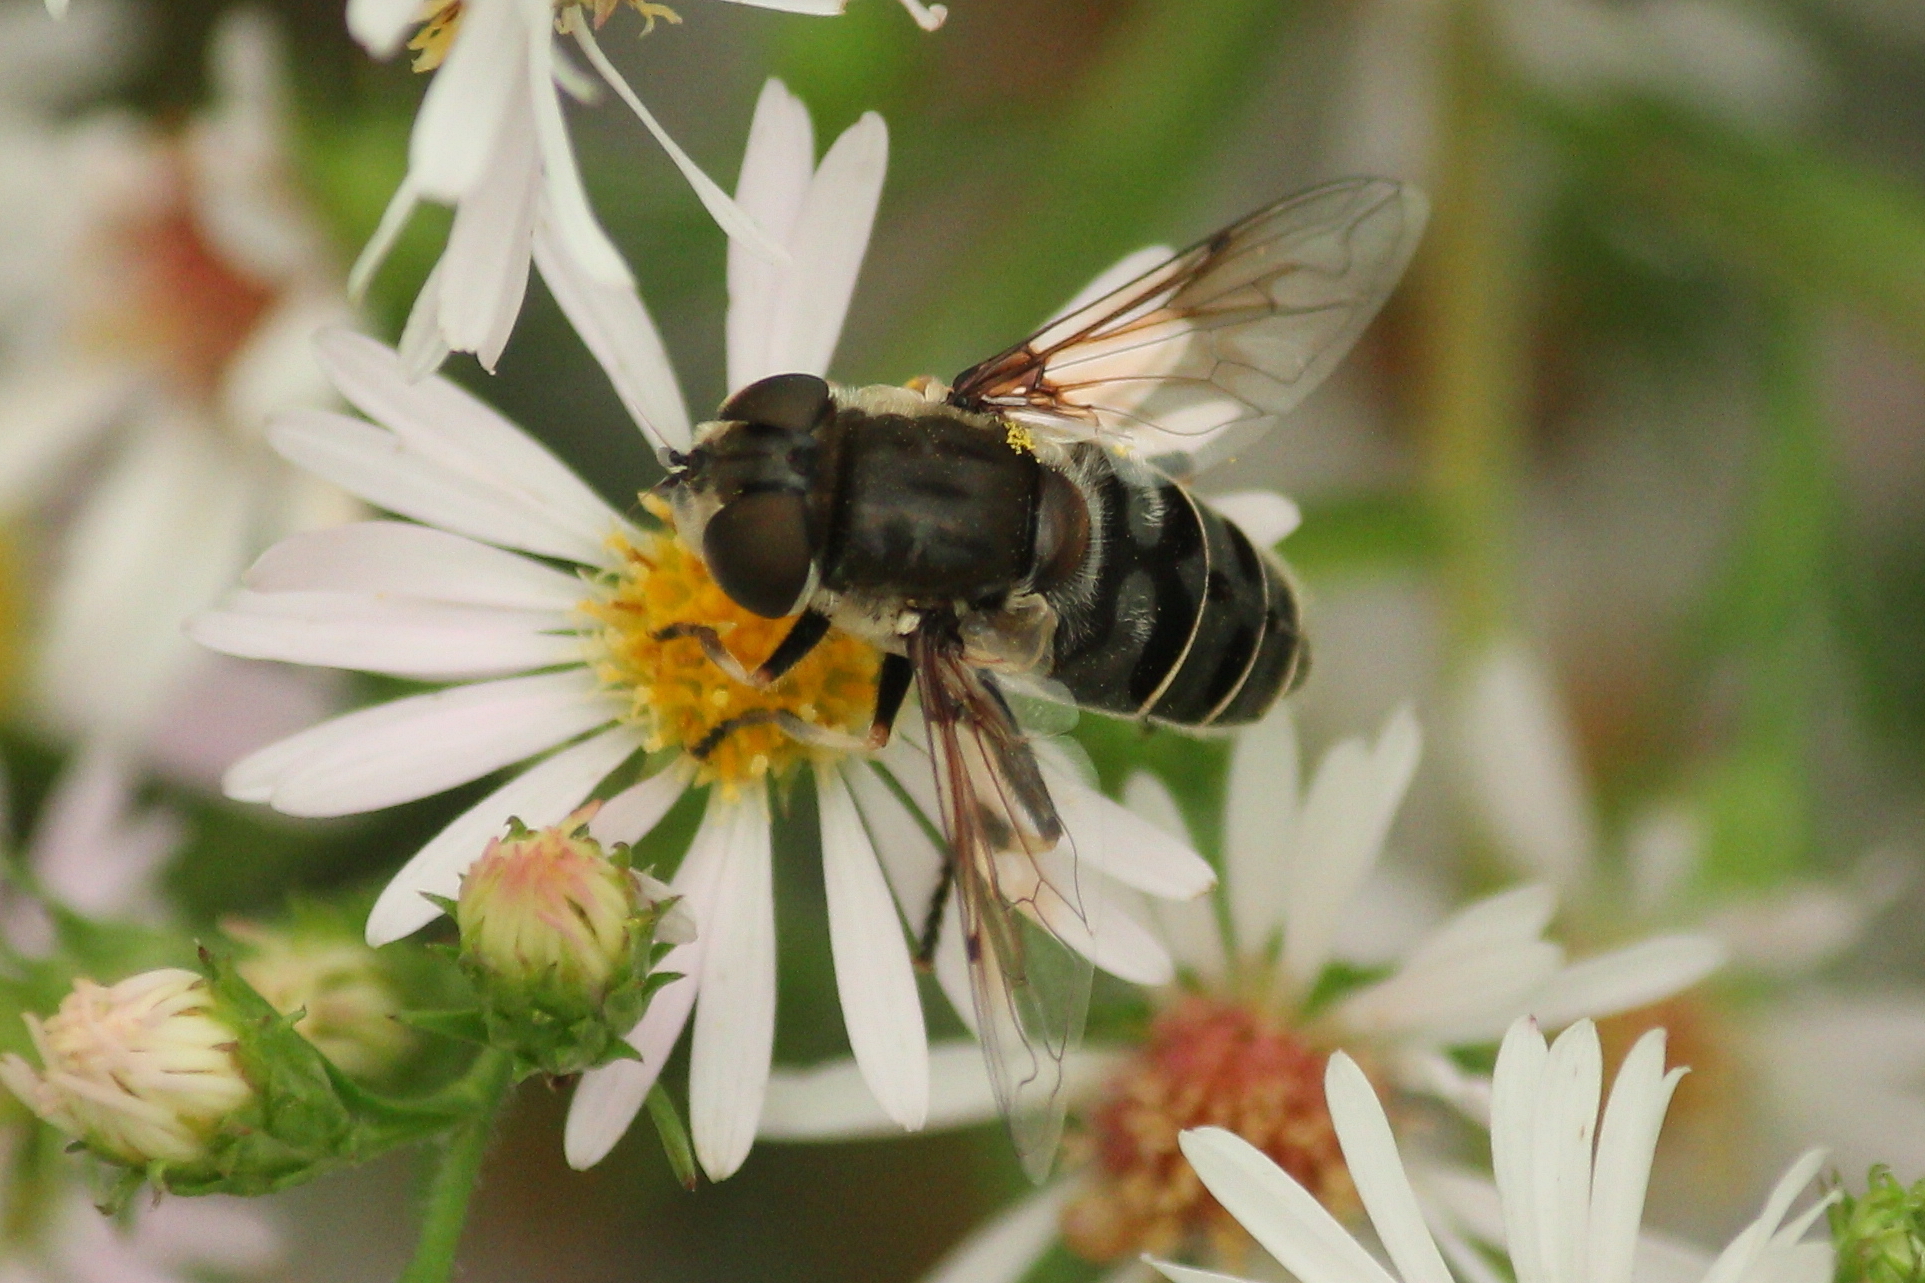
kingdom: Animalia
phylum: Arthropoda
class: Insecta
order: Diptera
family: Syrphidae
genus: Eristalis
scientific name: Eristalis dimidiata
